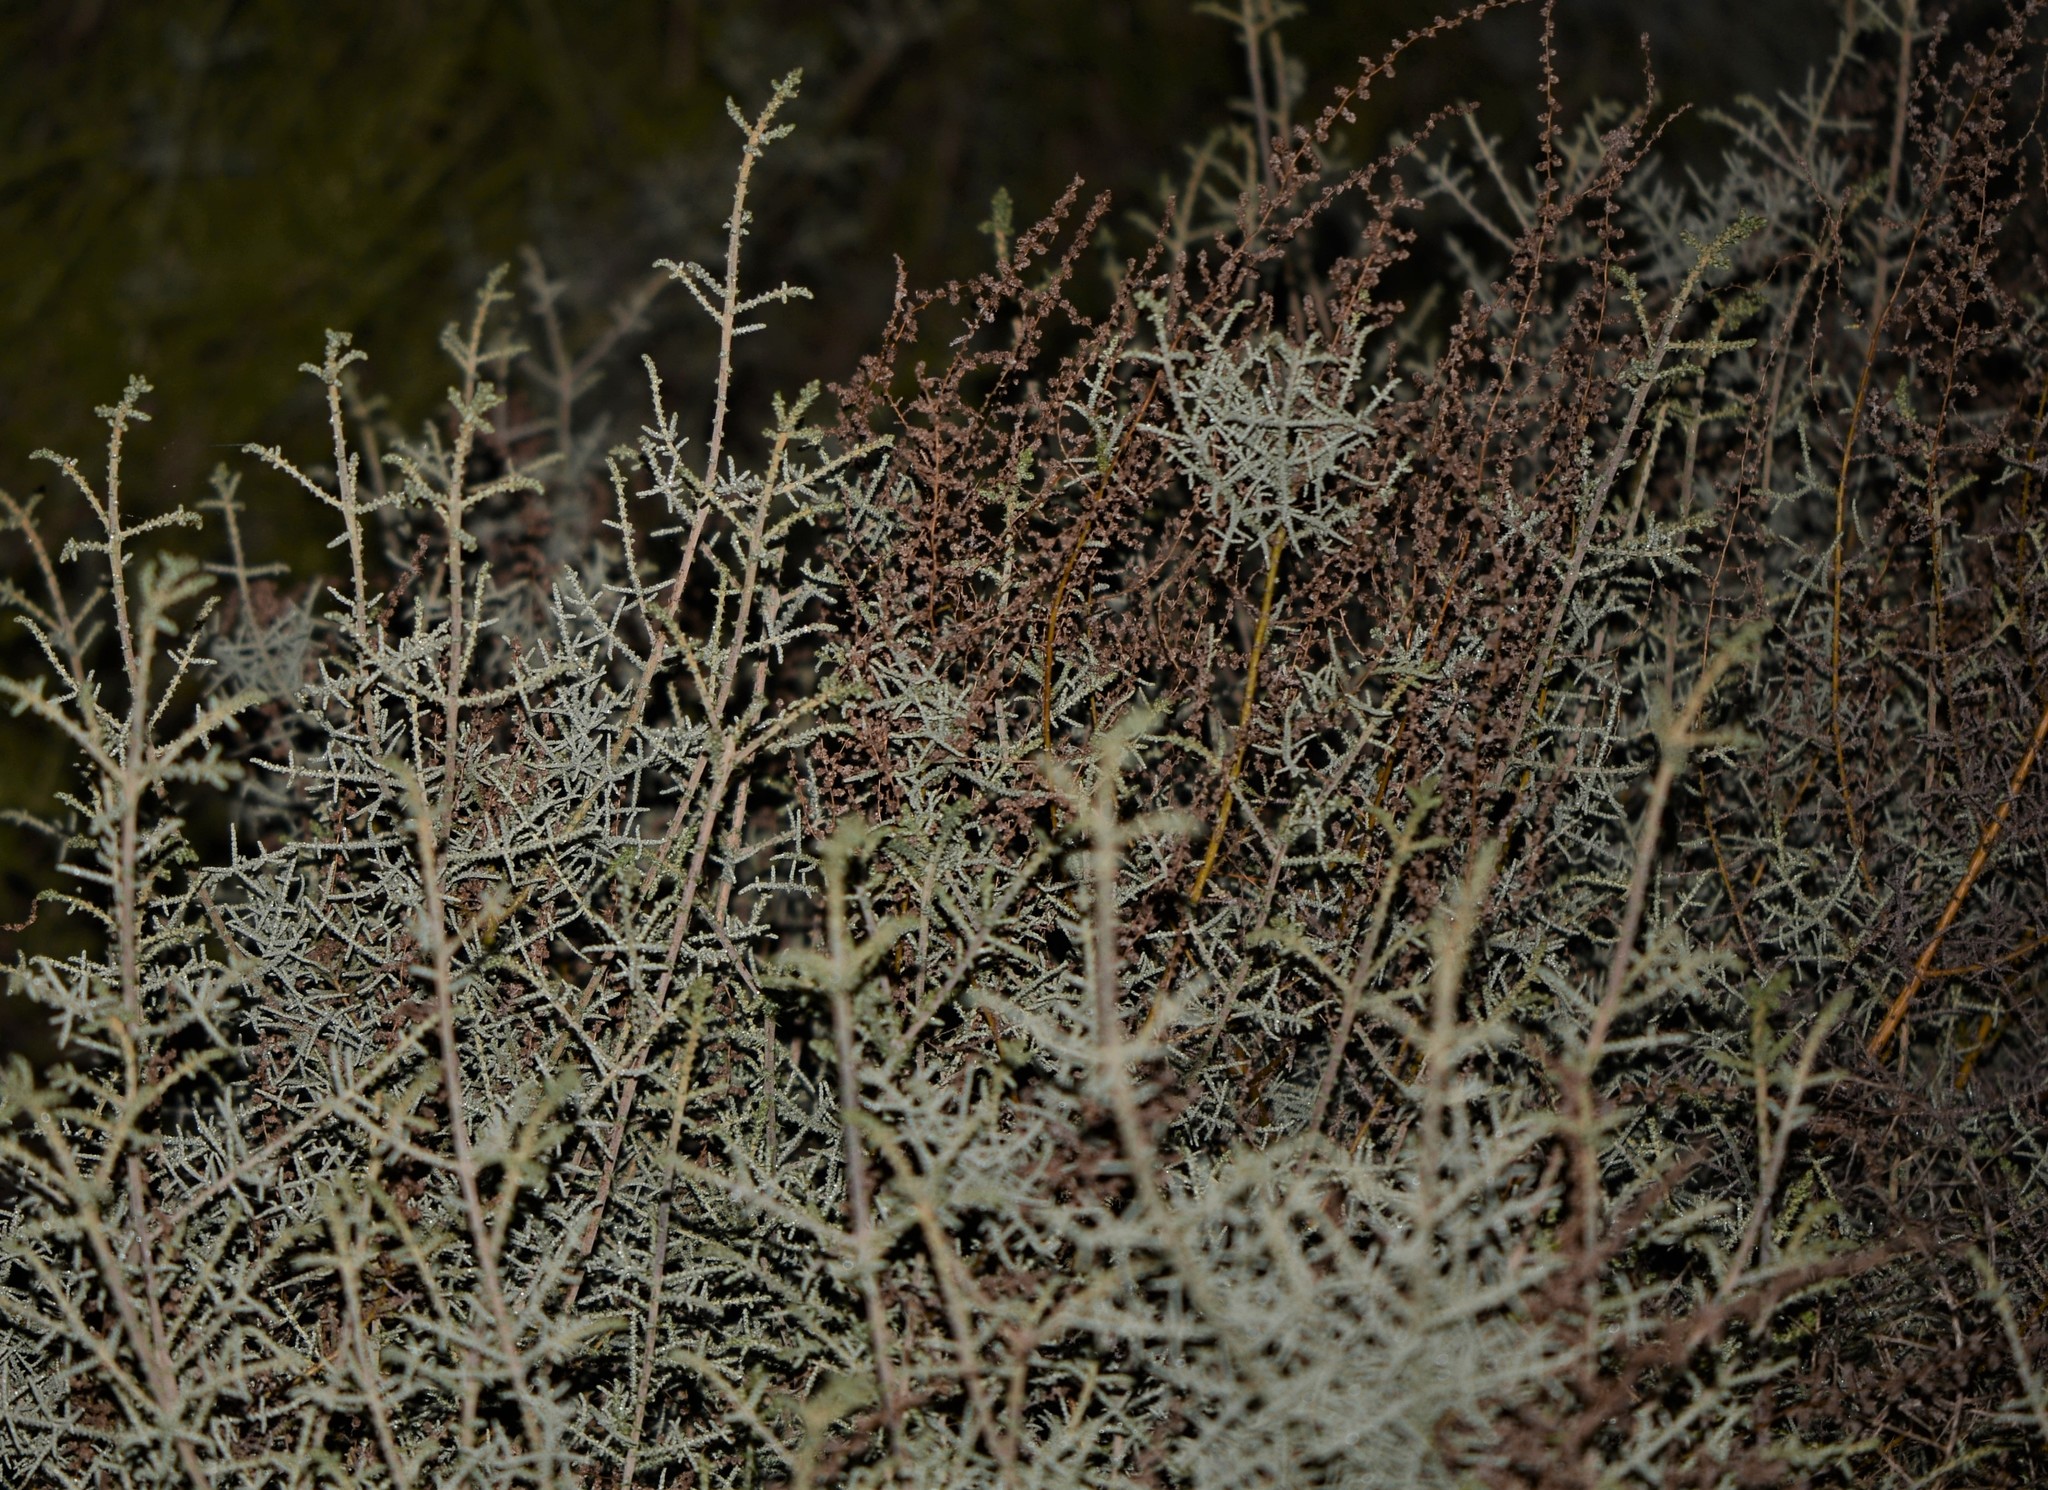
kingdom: Plantae
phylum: Tracheophyta
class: Magnoliopsida
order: Asterales
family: Asteraceae
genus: Seriphium
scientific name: Seriphium plumosum
